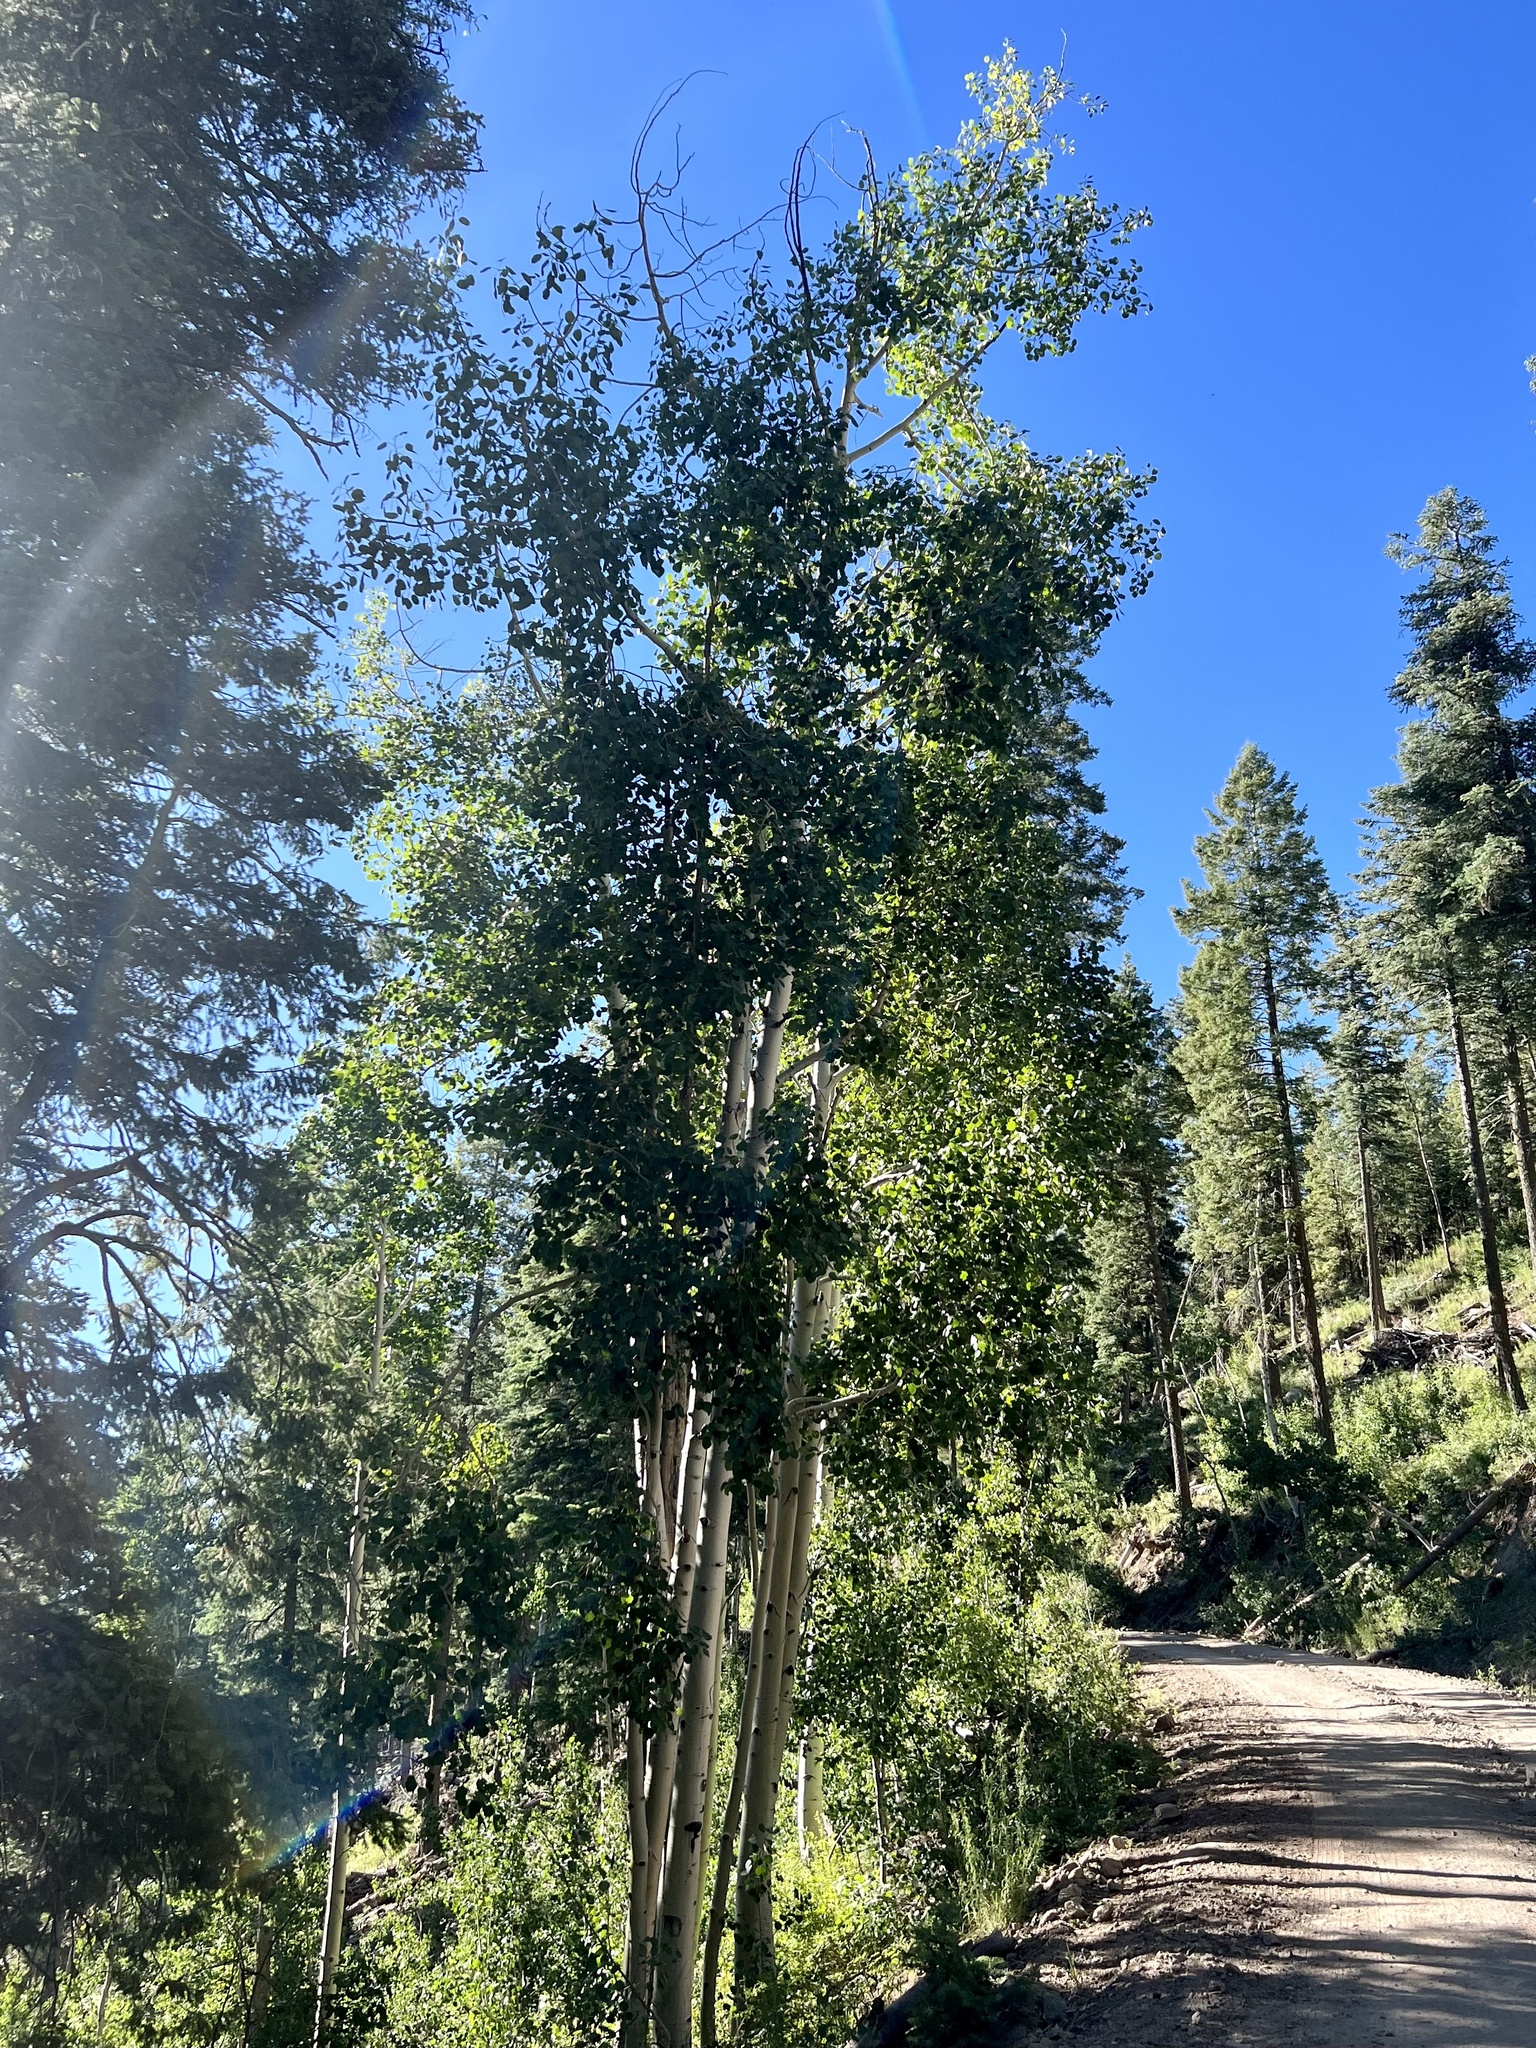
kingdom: Plantae
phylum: Tracheophyta
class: Magnoliopsida
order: Malpighiales
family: Salicaceae
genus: Populus
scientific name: Populus tremuloides
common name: Quaking aspen
